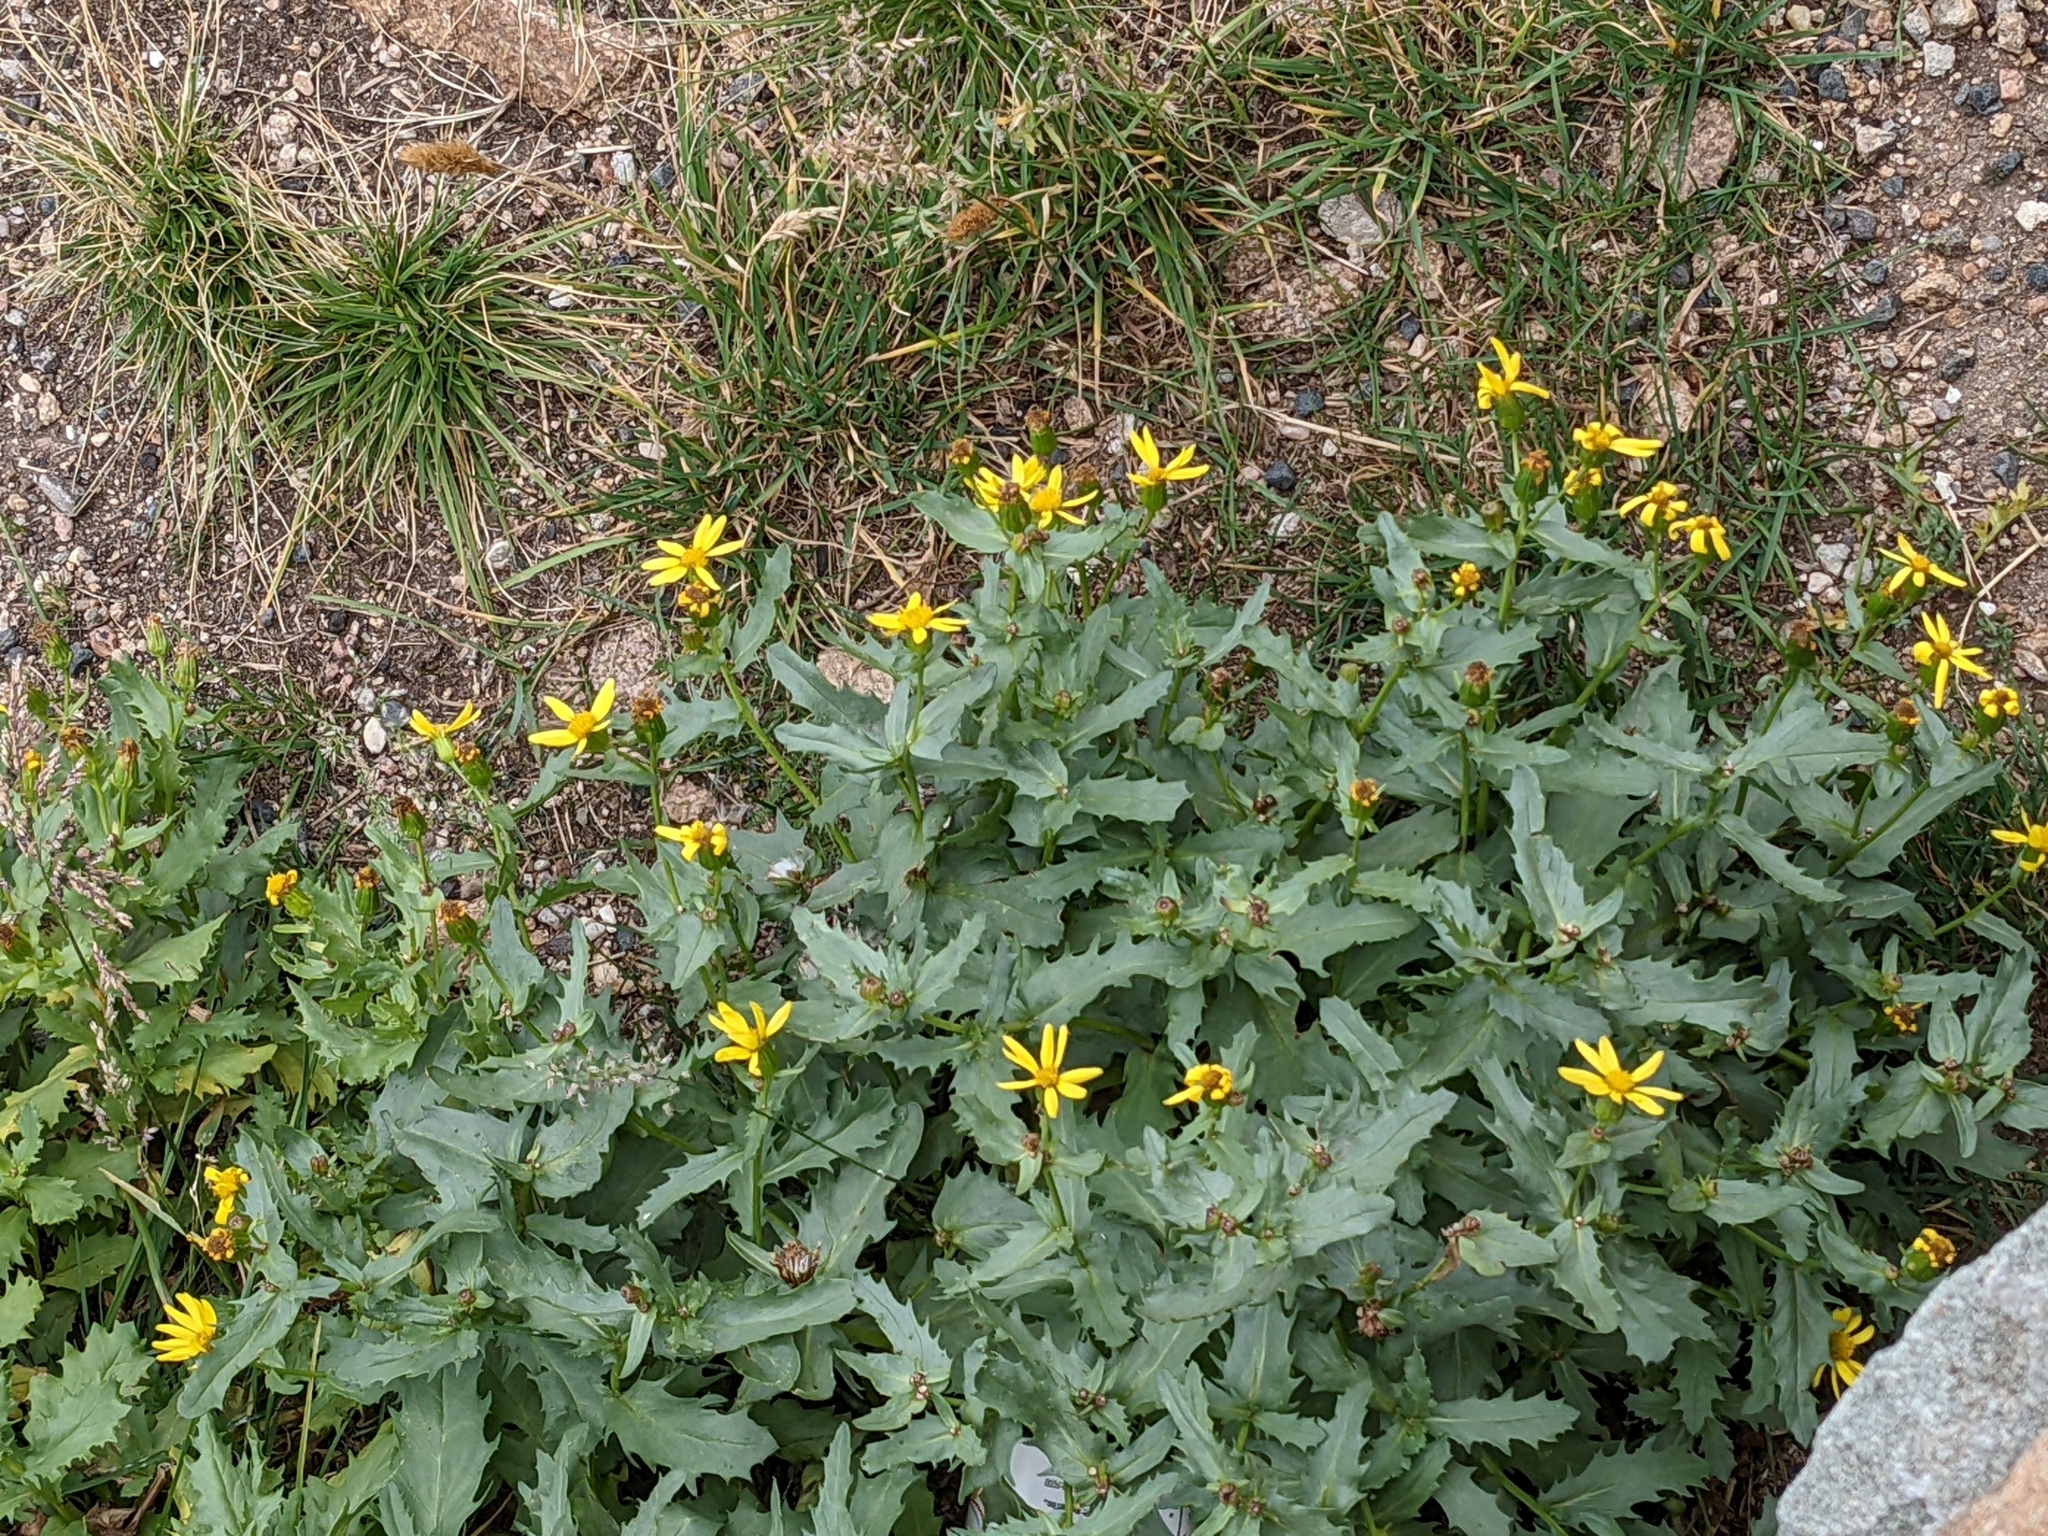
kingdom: Plantae
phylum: Tracheophyta
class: Magnoliopsida
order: Asterales
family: Asteraceae
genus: Senecio
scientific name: Senecio fremontii
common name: Fremont's groundsel
